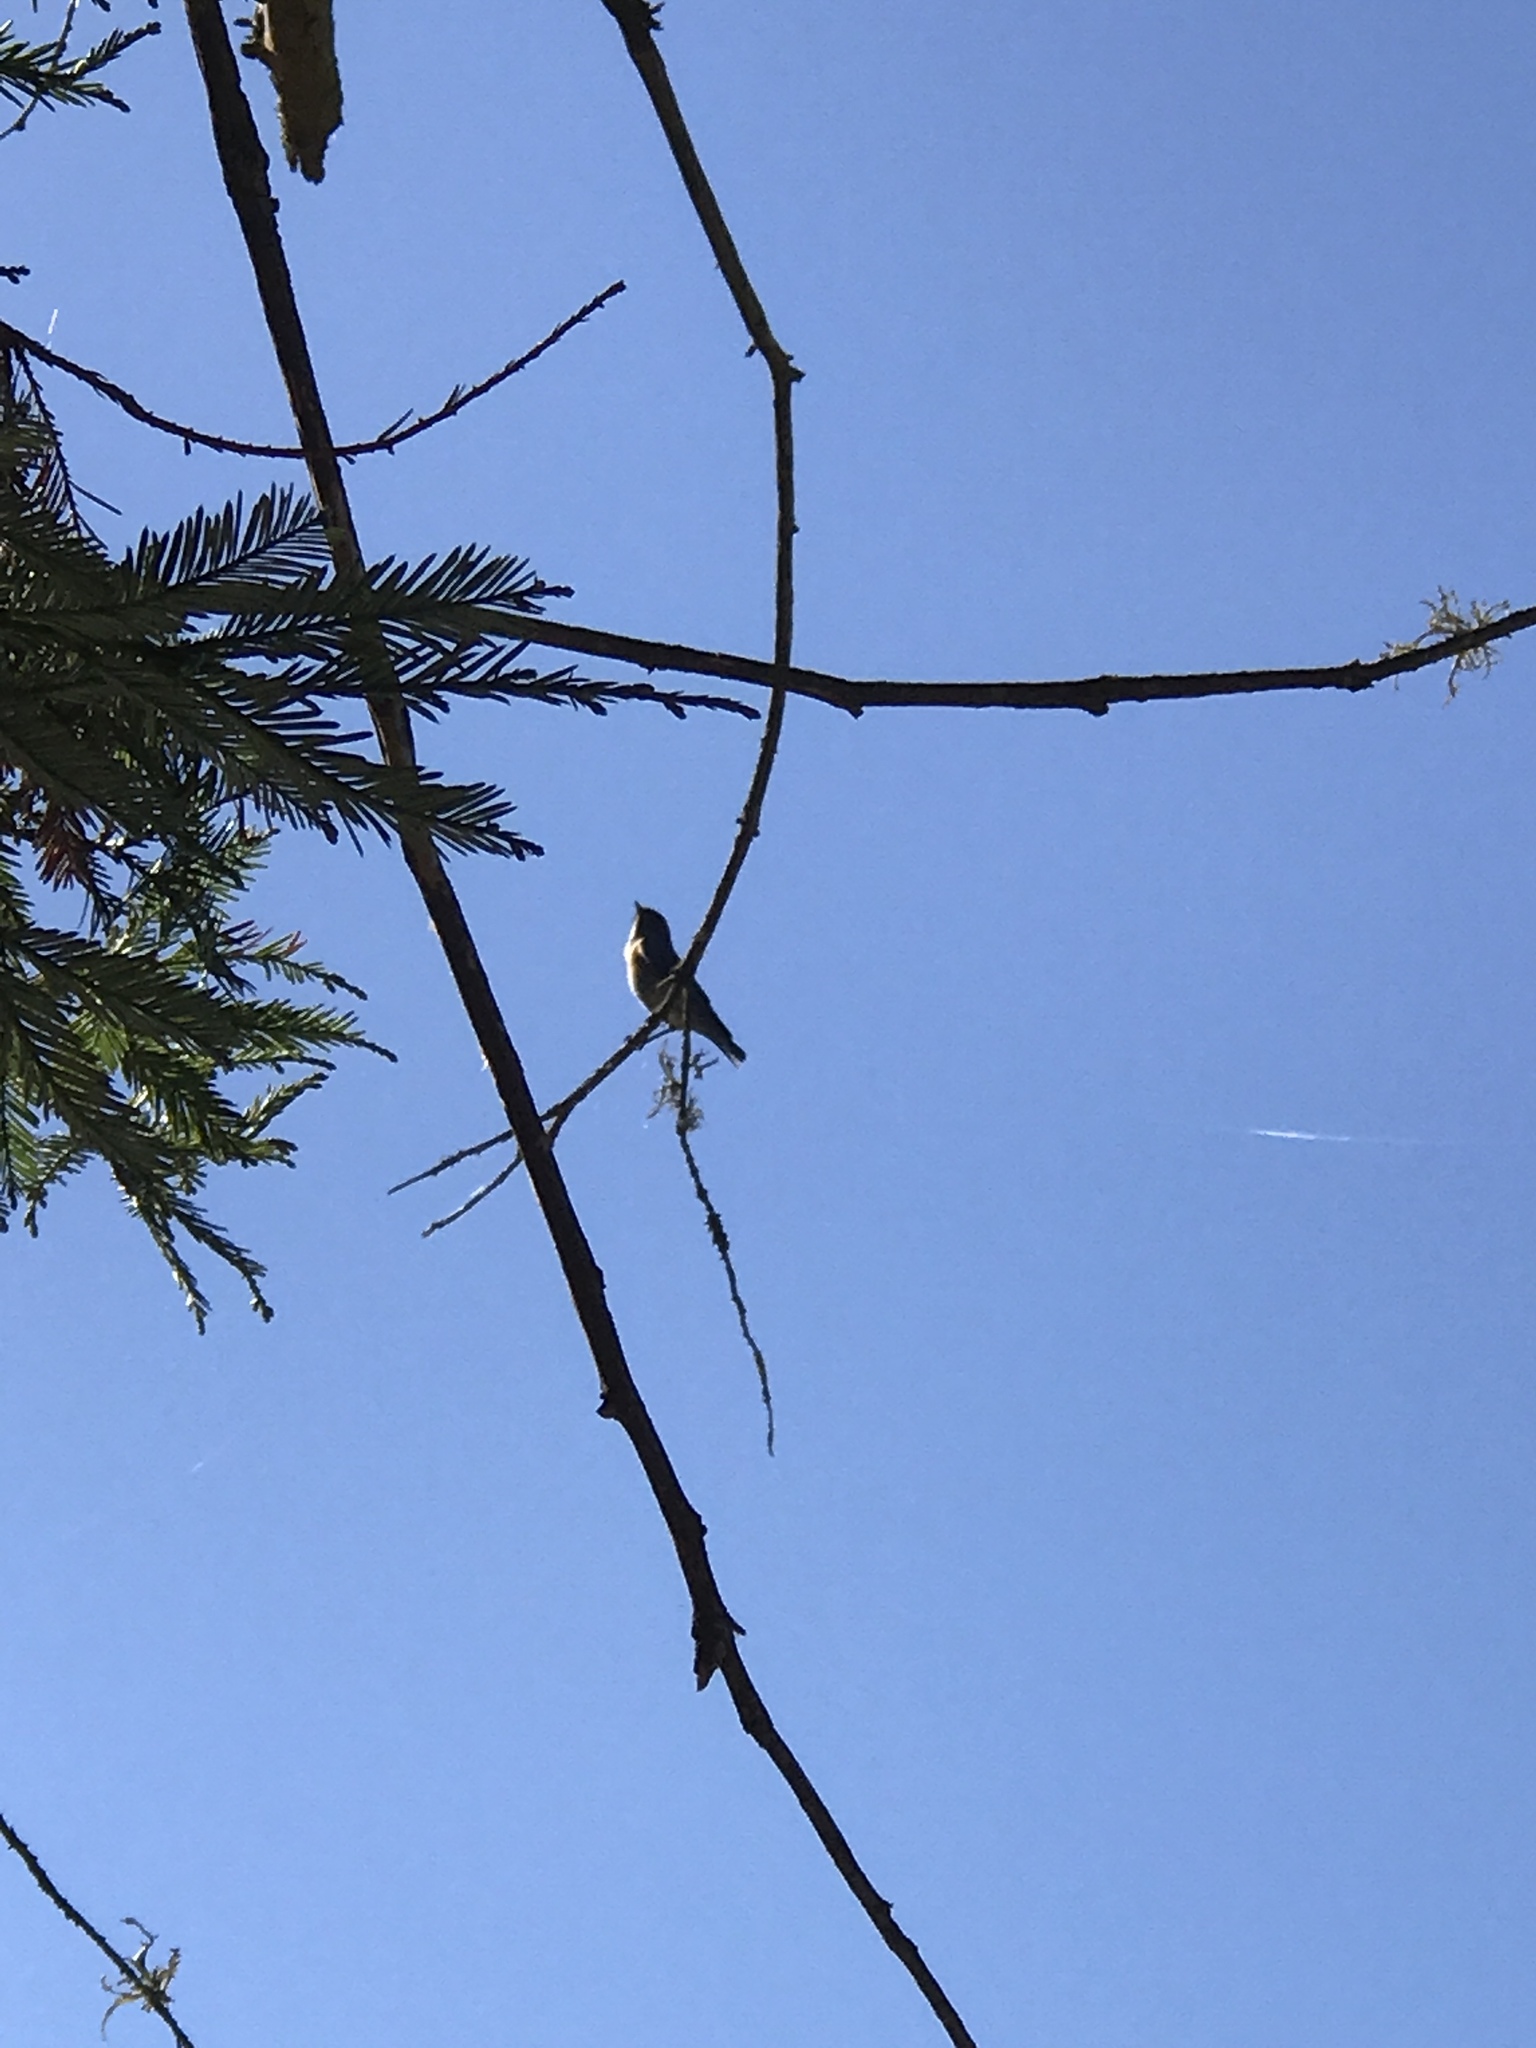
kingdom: Animalia
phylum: Chordata
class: Aves
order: Passeriformes
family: Turdidae
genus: Sialia
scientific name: Sialia mexicana
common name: Western bluebird
